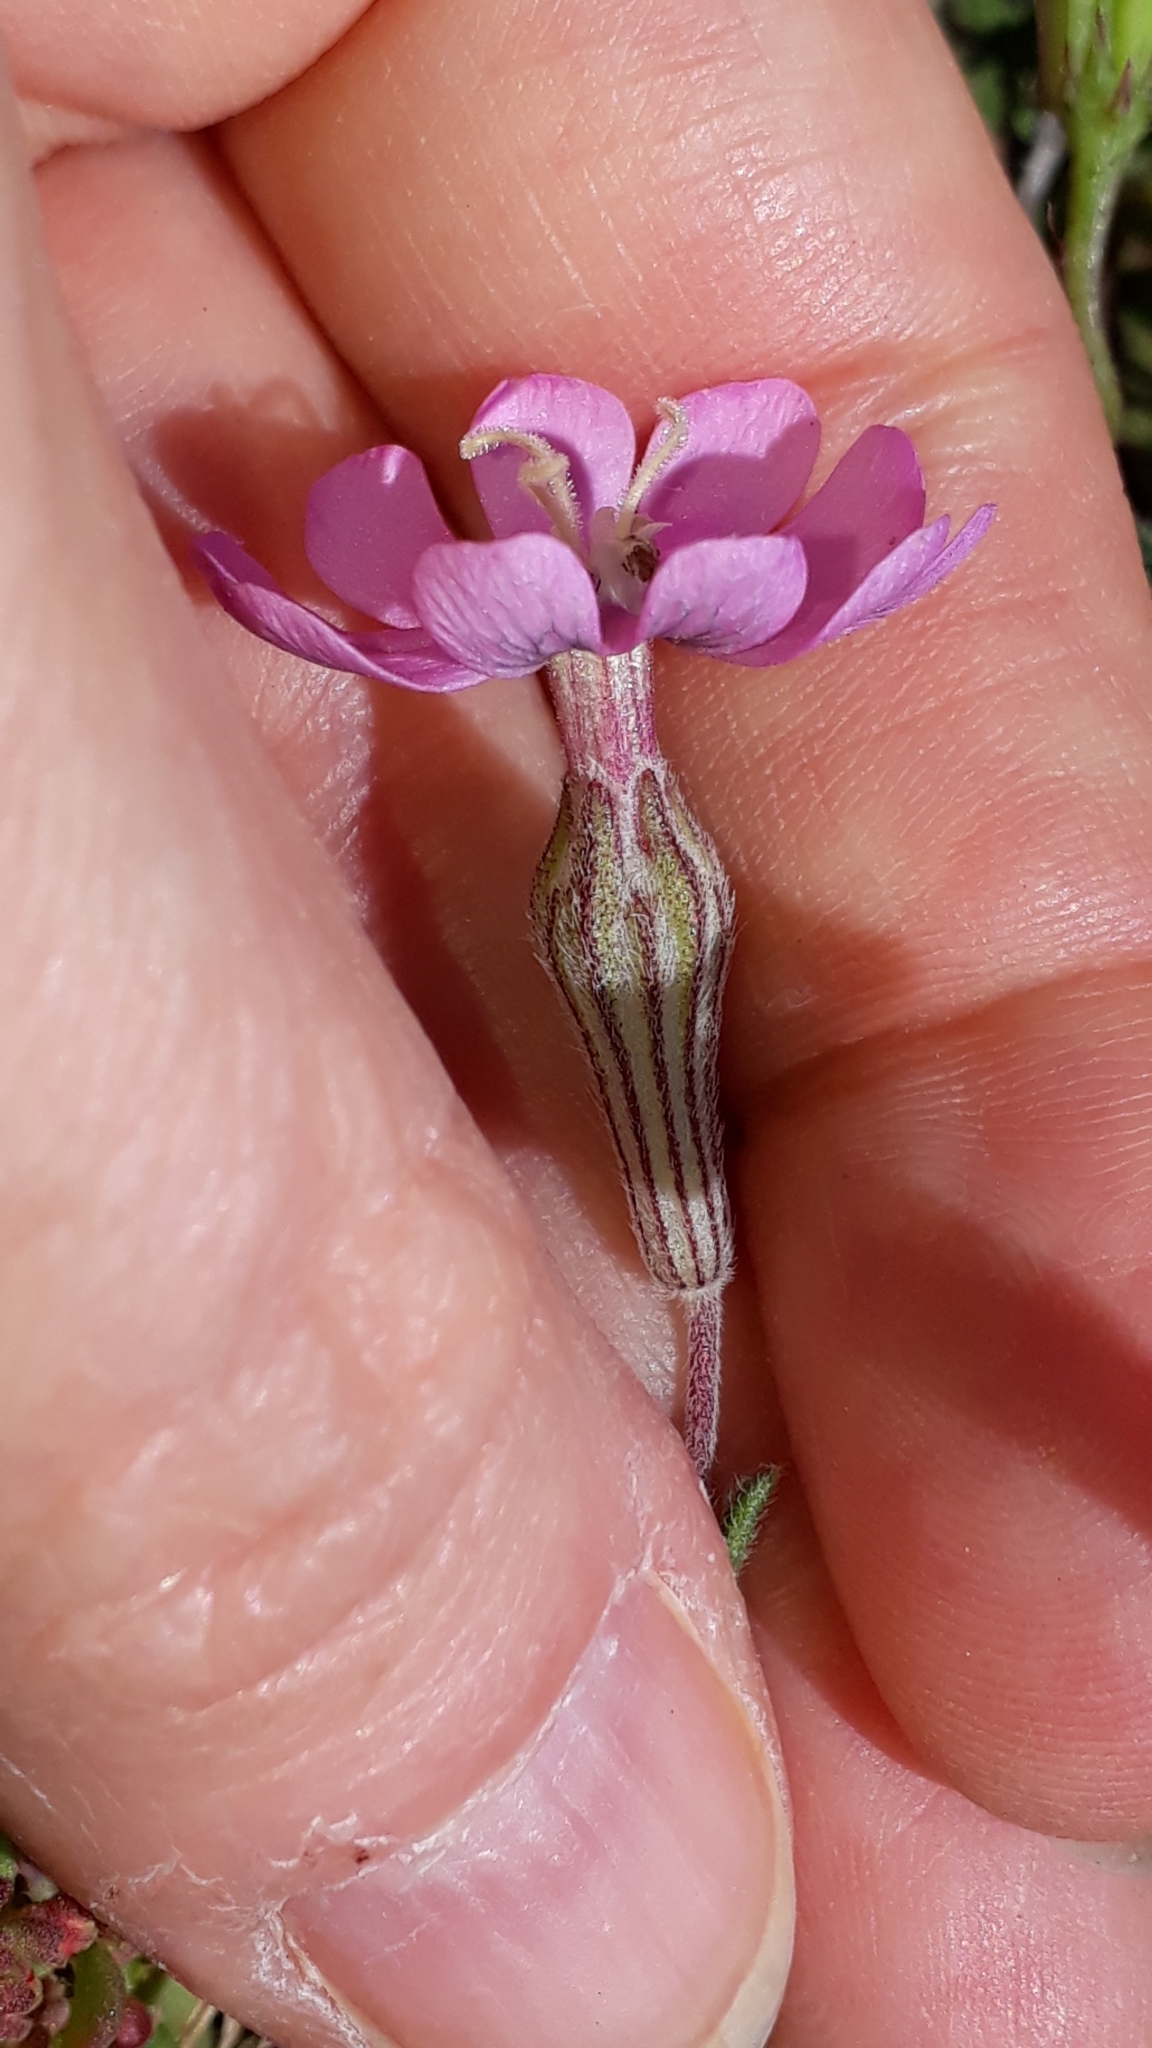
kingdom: Plantae
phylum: Tracheophyta
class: Magnoliopsida
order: Caryophyllales
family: Caryophyllaceae
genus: Silene
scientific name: Silene sericea
